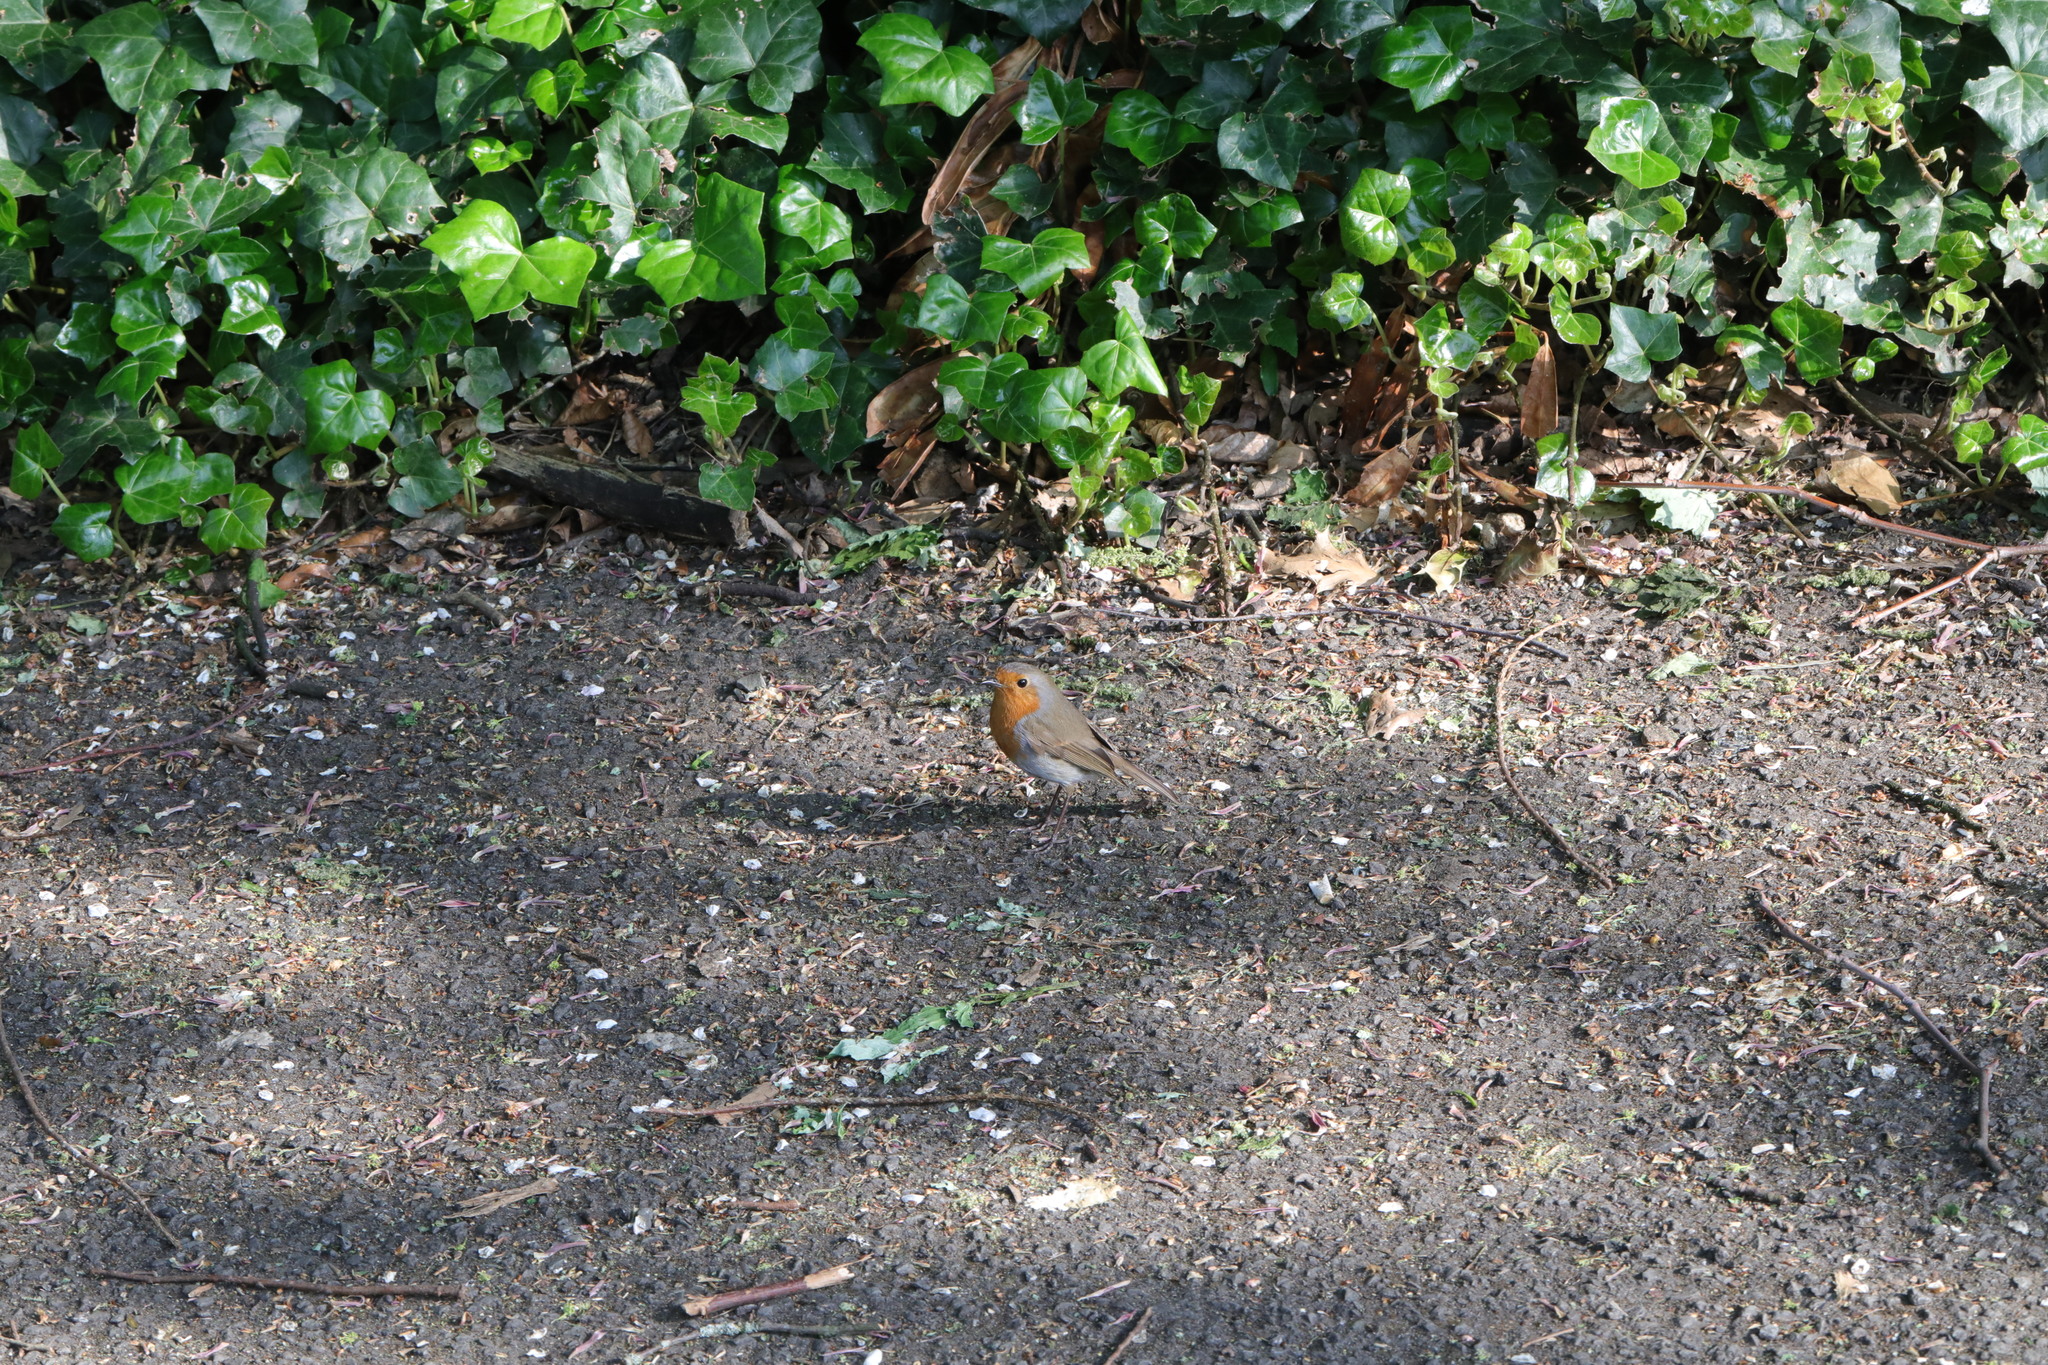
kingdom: Animalia
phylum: Chordata
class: Aves
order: Passeriformes
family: Muscicapidae
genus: Erithacus
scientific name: Erithacus rubecula
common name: European robin
